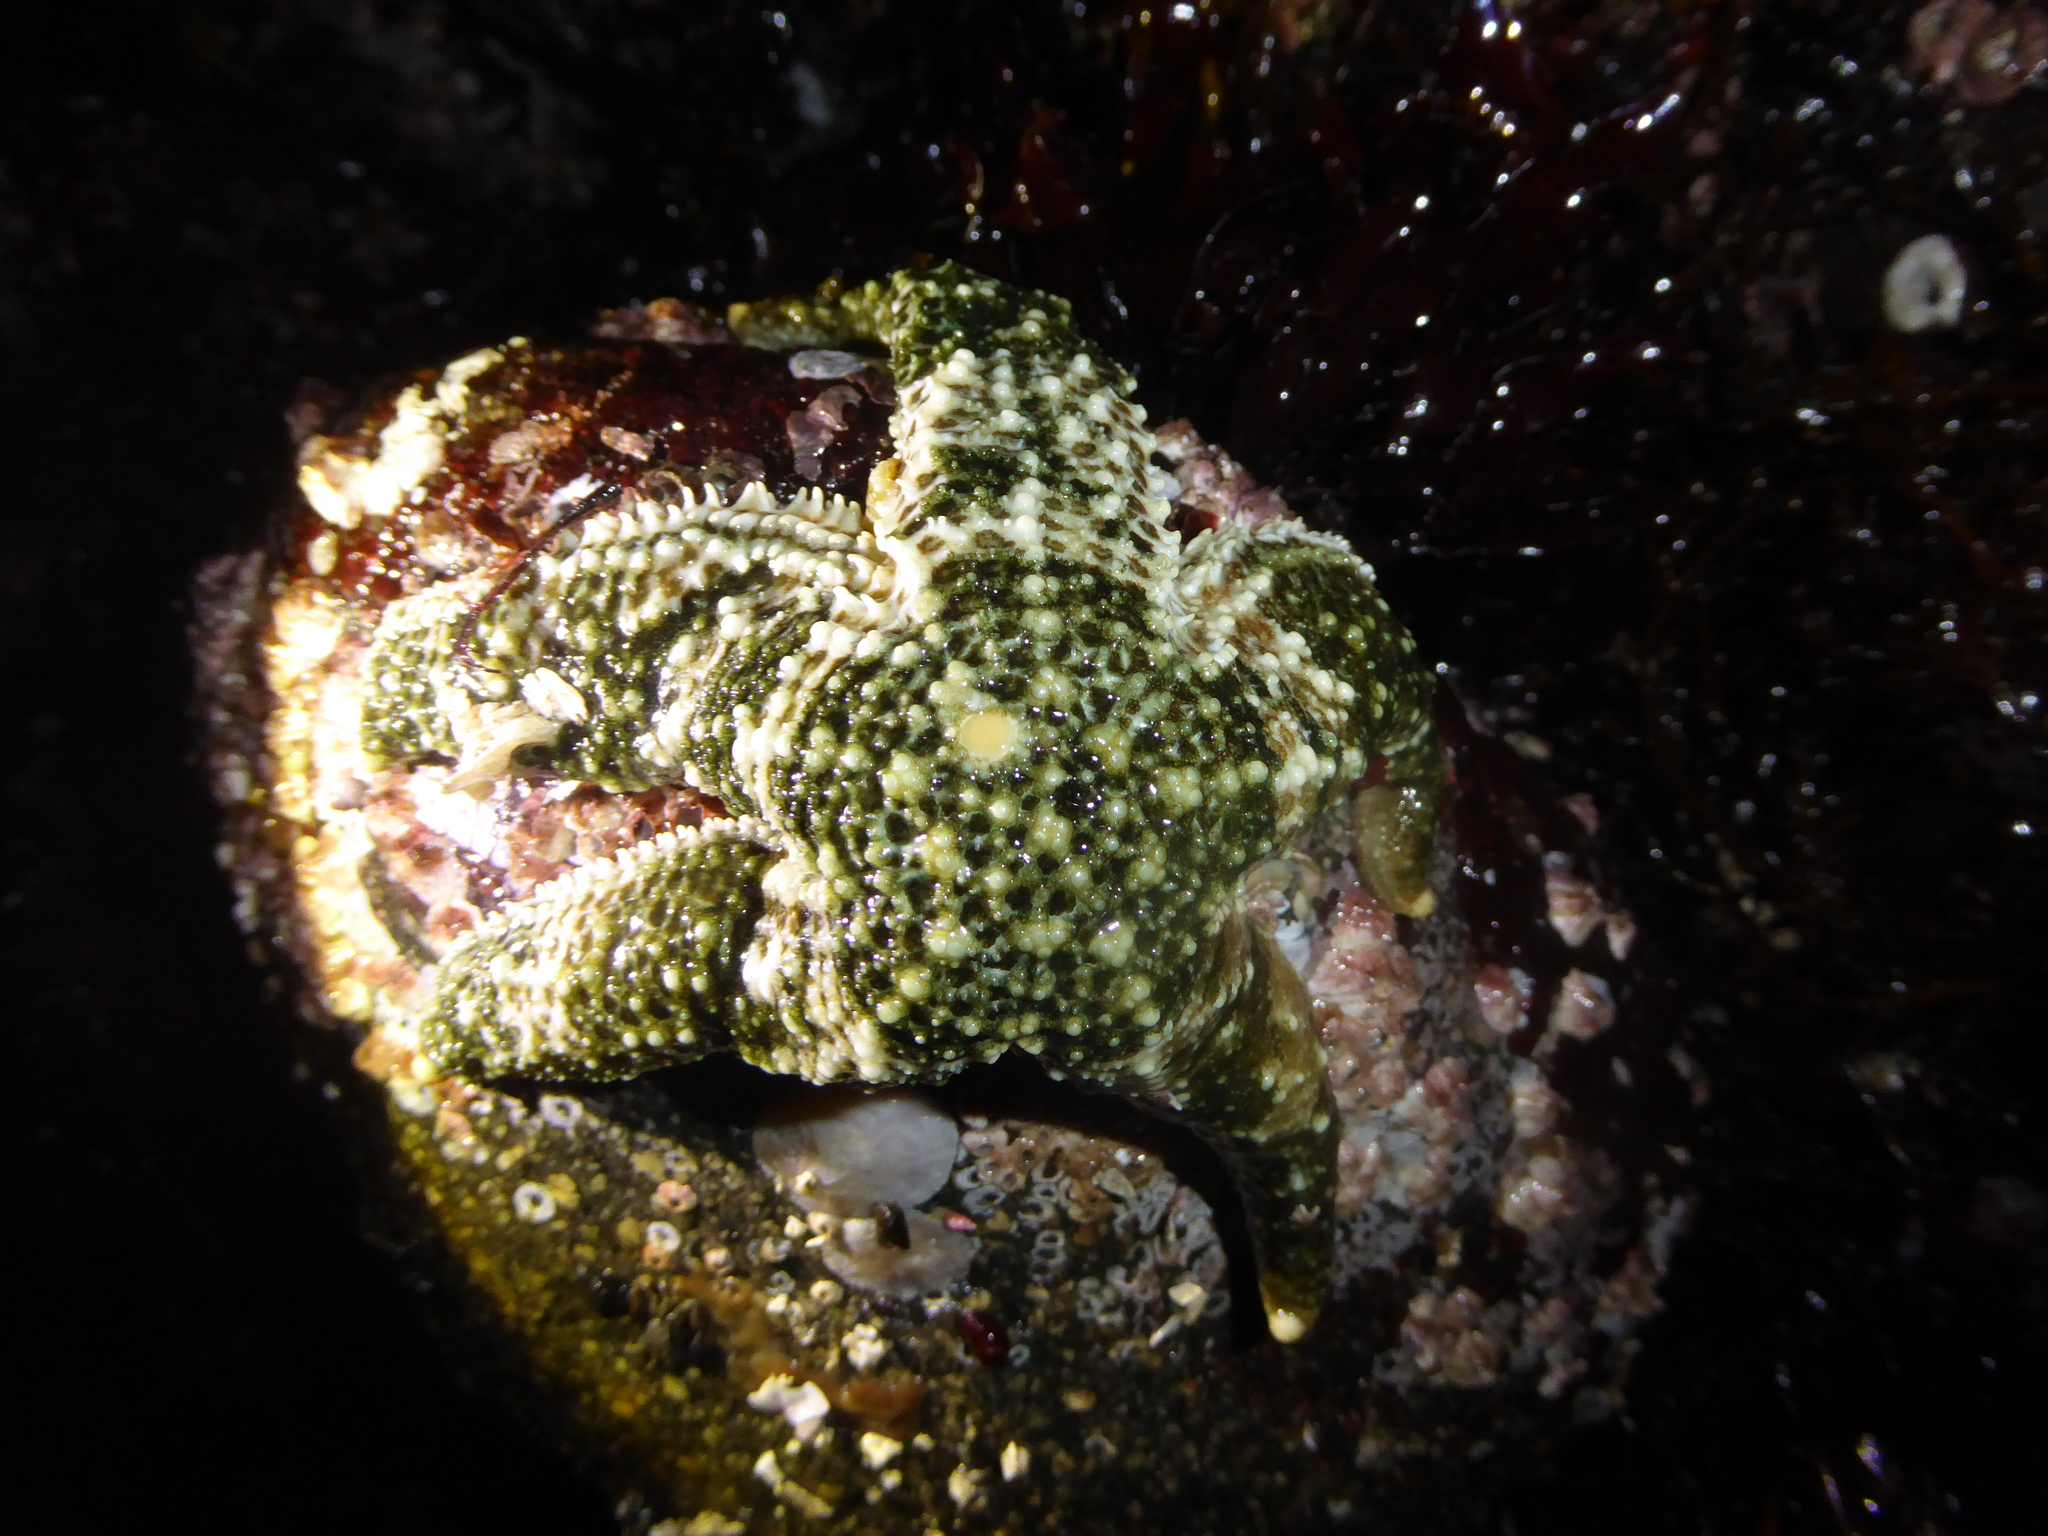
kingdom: Animalia
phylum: Echinodermata
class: Asteroidea
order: Forcipulatida
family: Asteriidae
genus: Evasterias
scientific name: Evasterias troschelii
